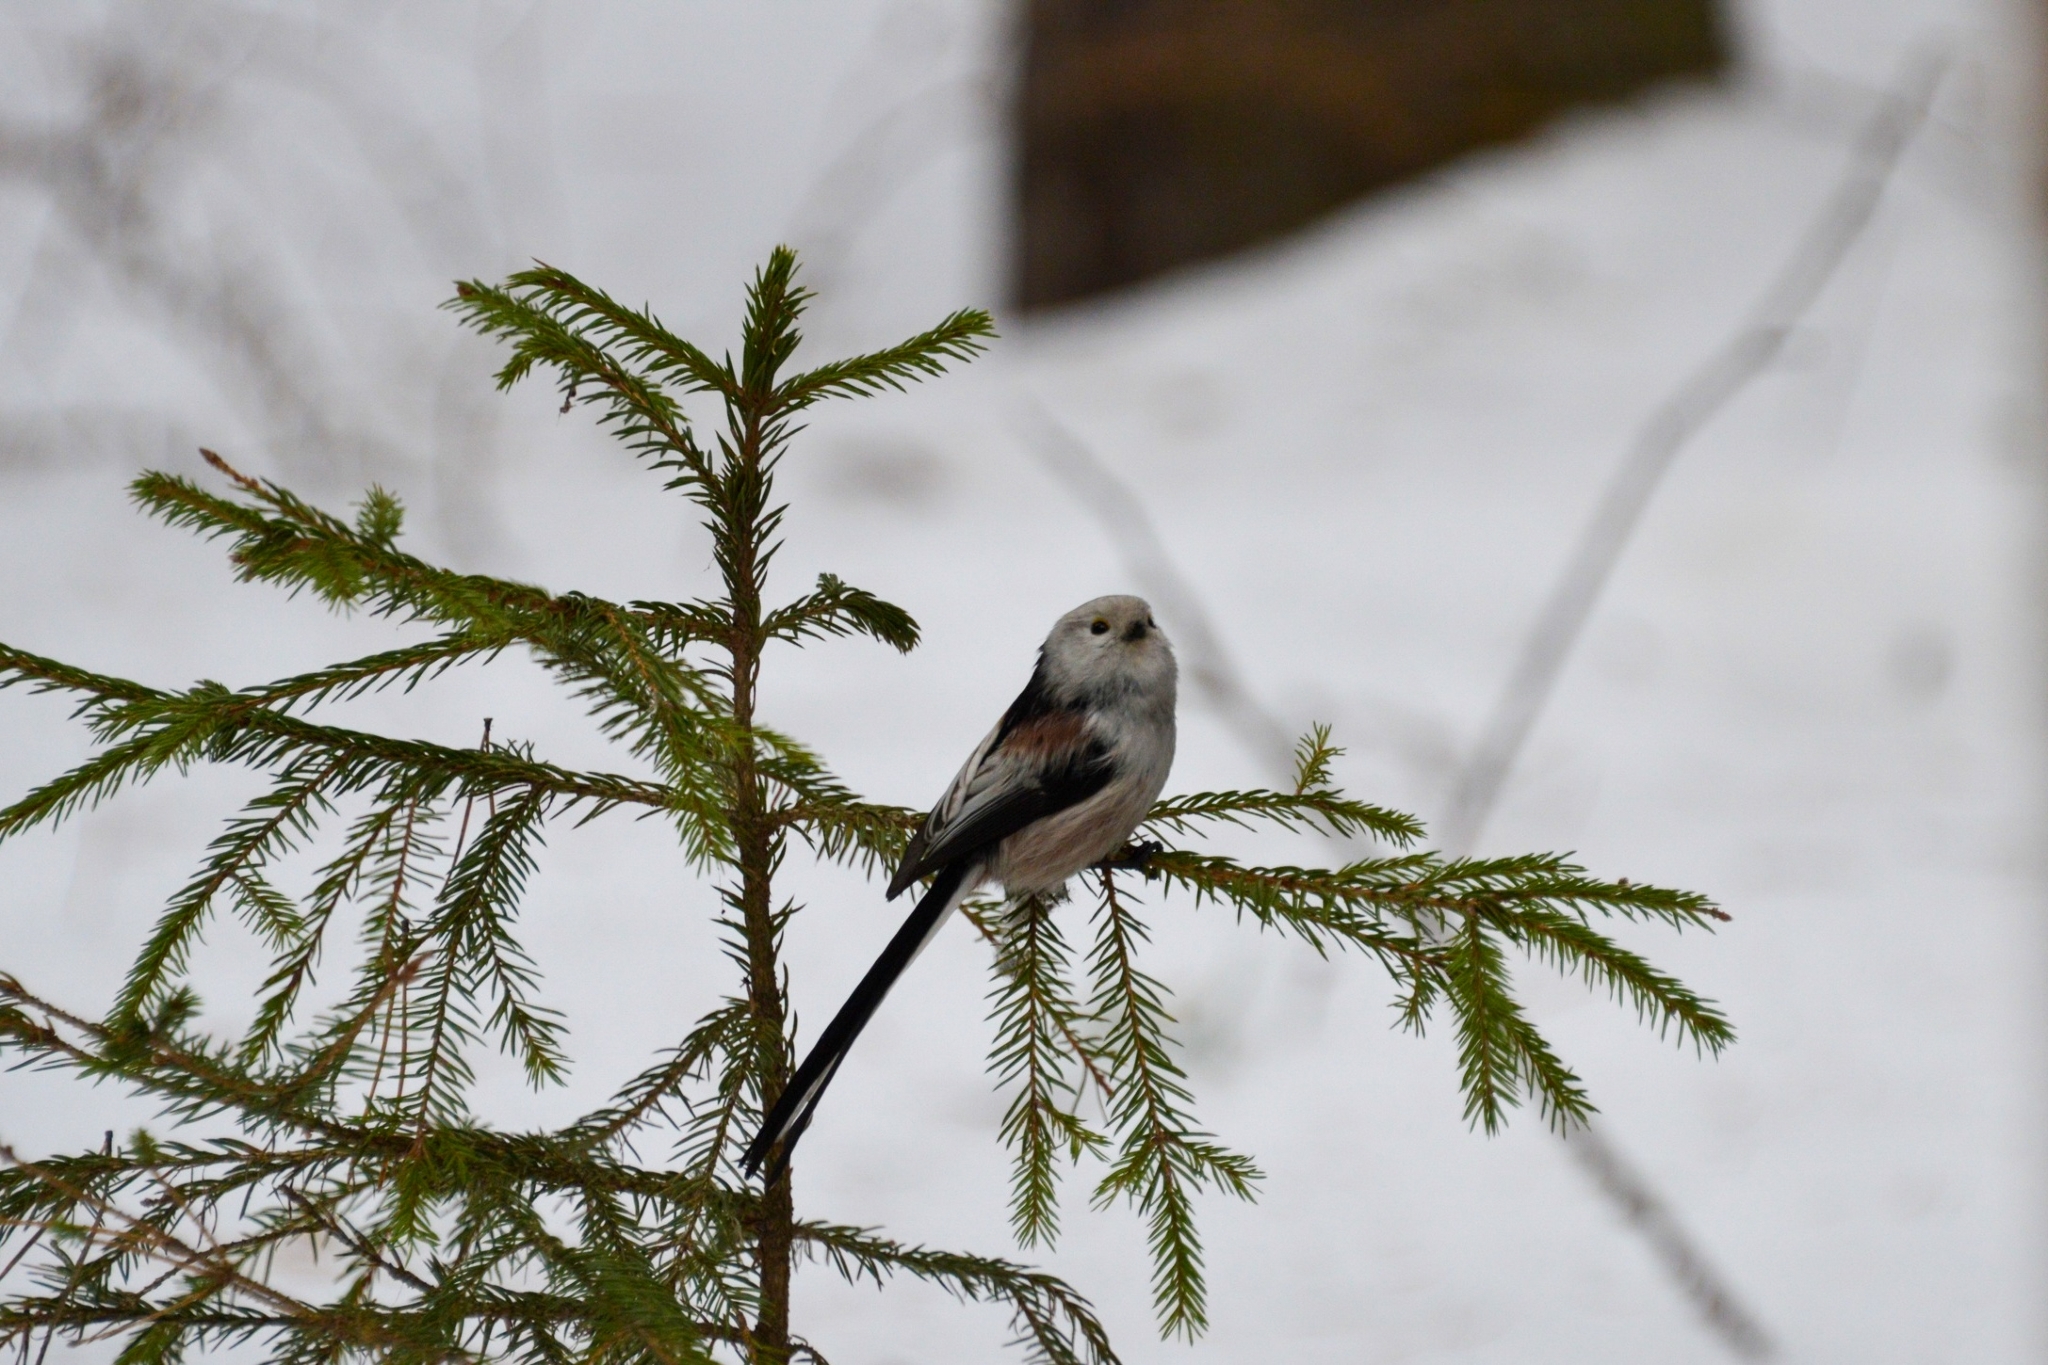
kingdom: Animalia
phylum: Chordata
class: Aves
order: Passeriformes
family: Aegithalidae
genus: Aegithalos
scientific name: Aegithalos caudatus
